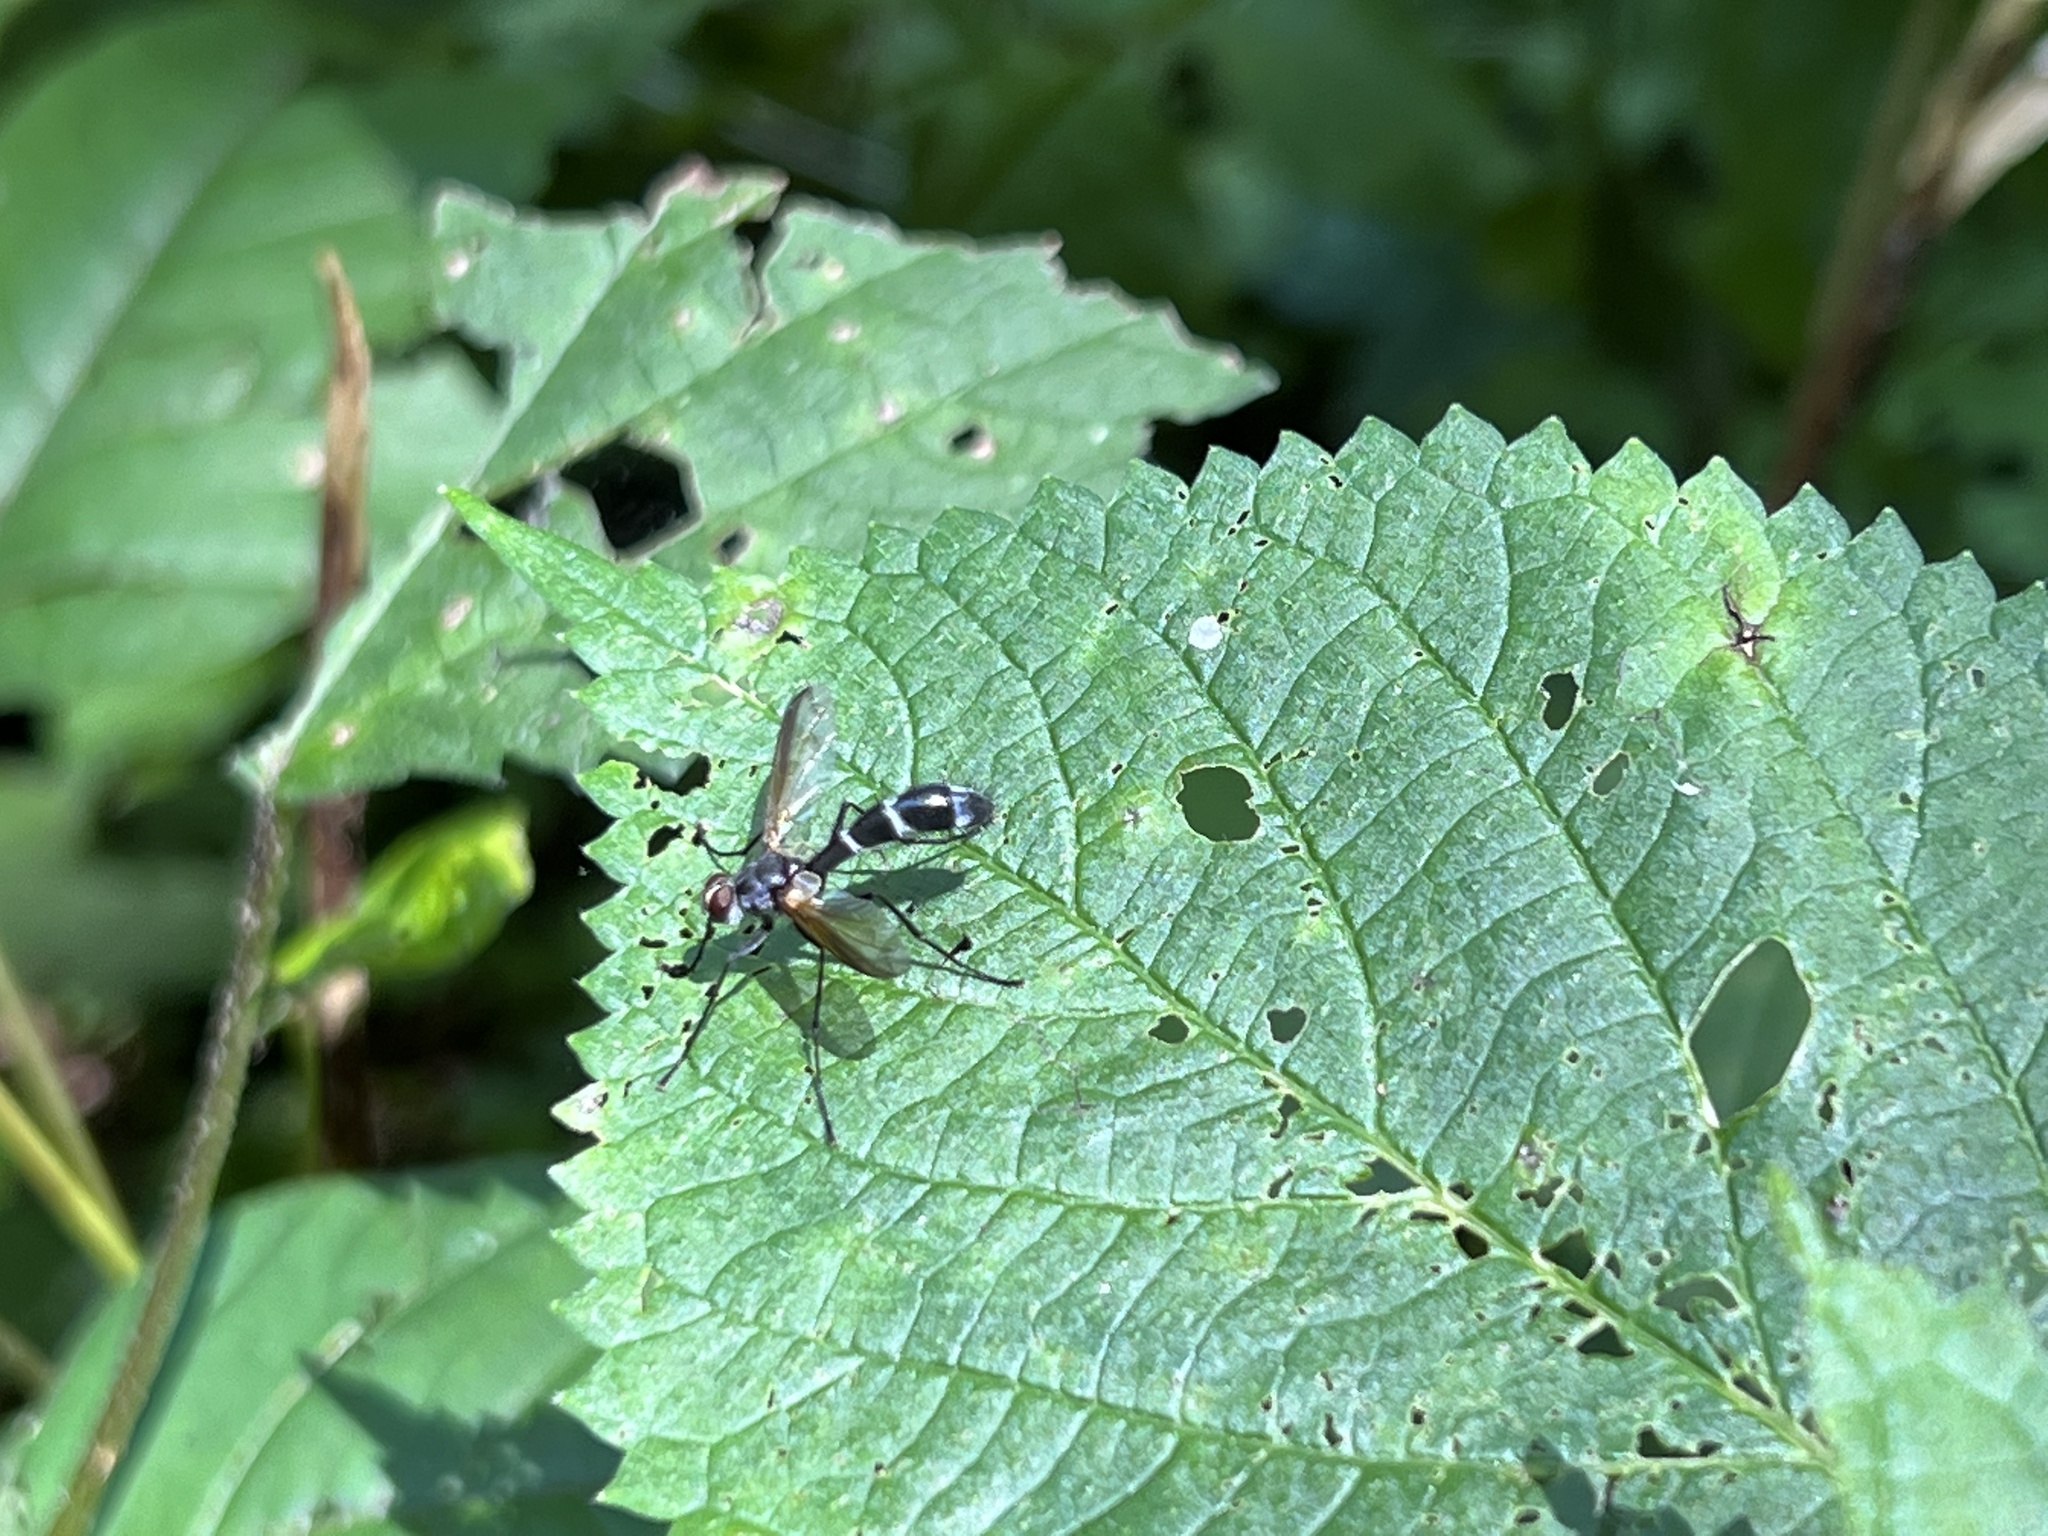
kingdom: Animalia
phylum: Arthropoda
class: Insecta
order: Diptera
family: Tachinidae
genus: Cordyligaster
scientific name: Cordyligaster septentrionalis
